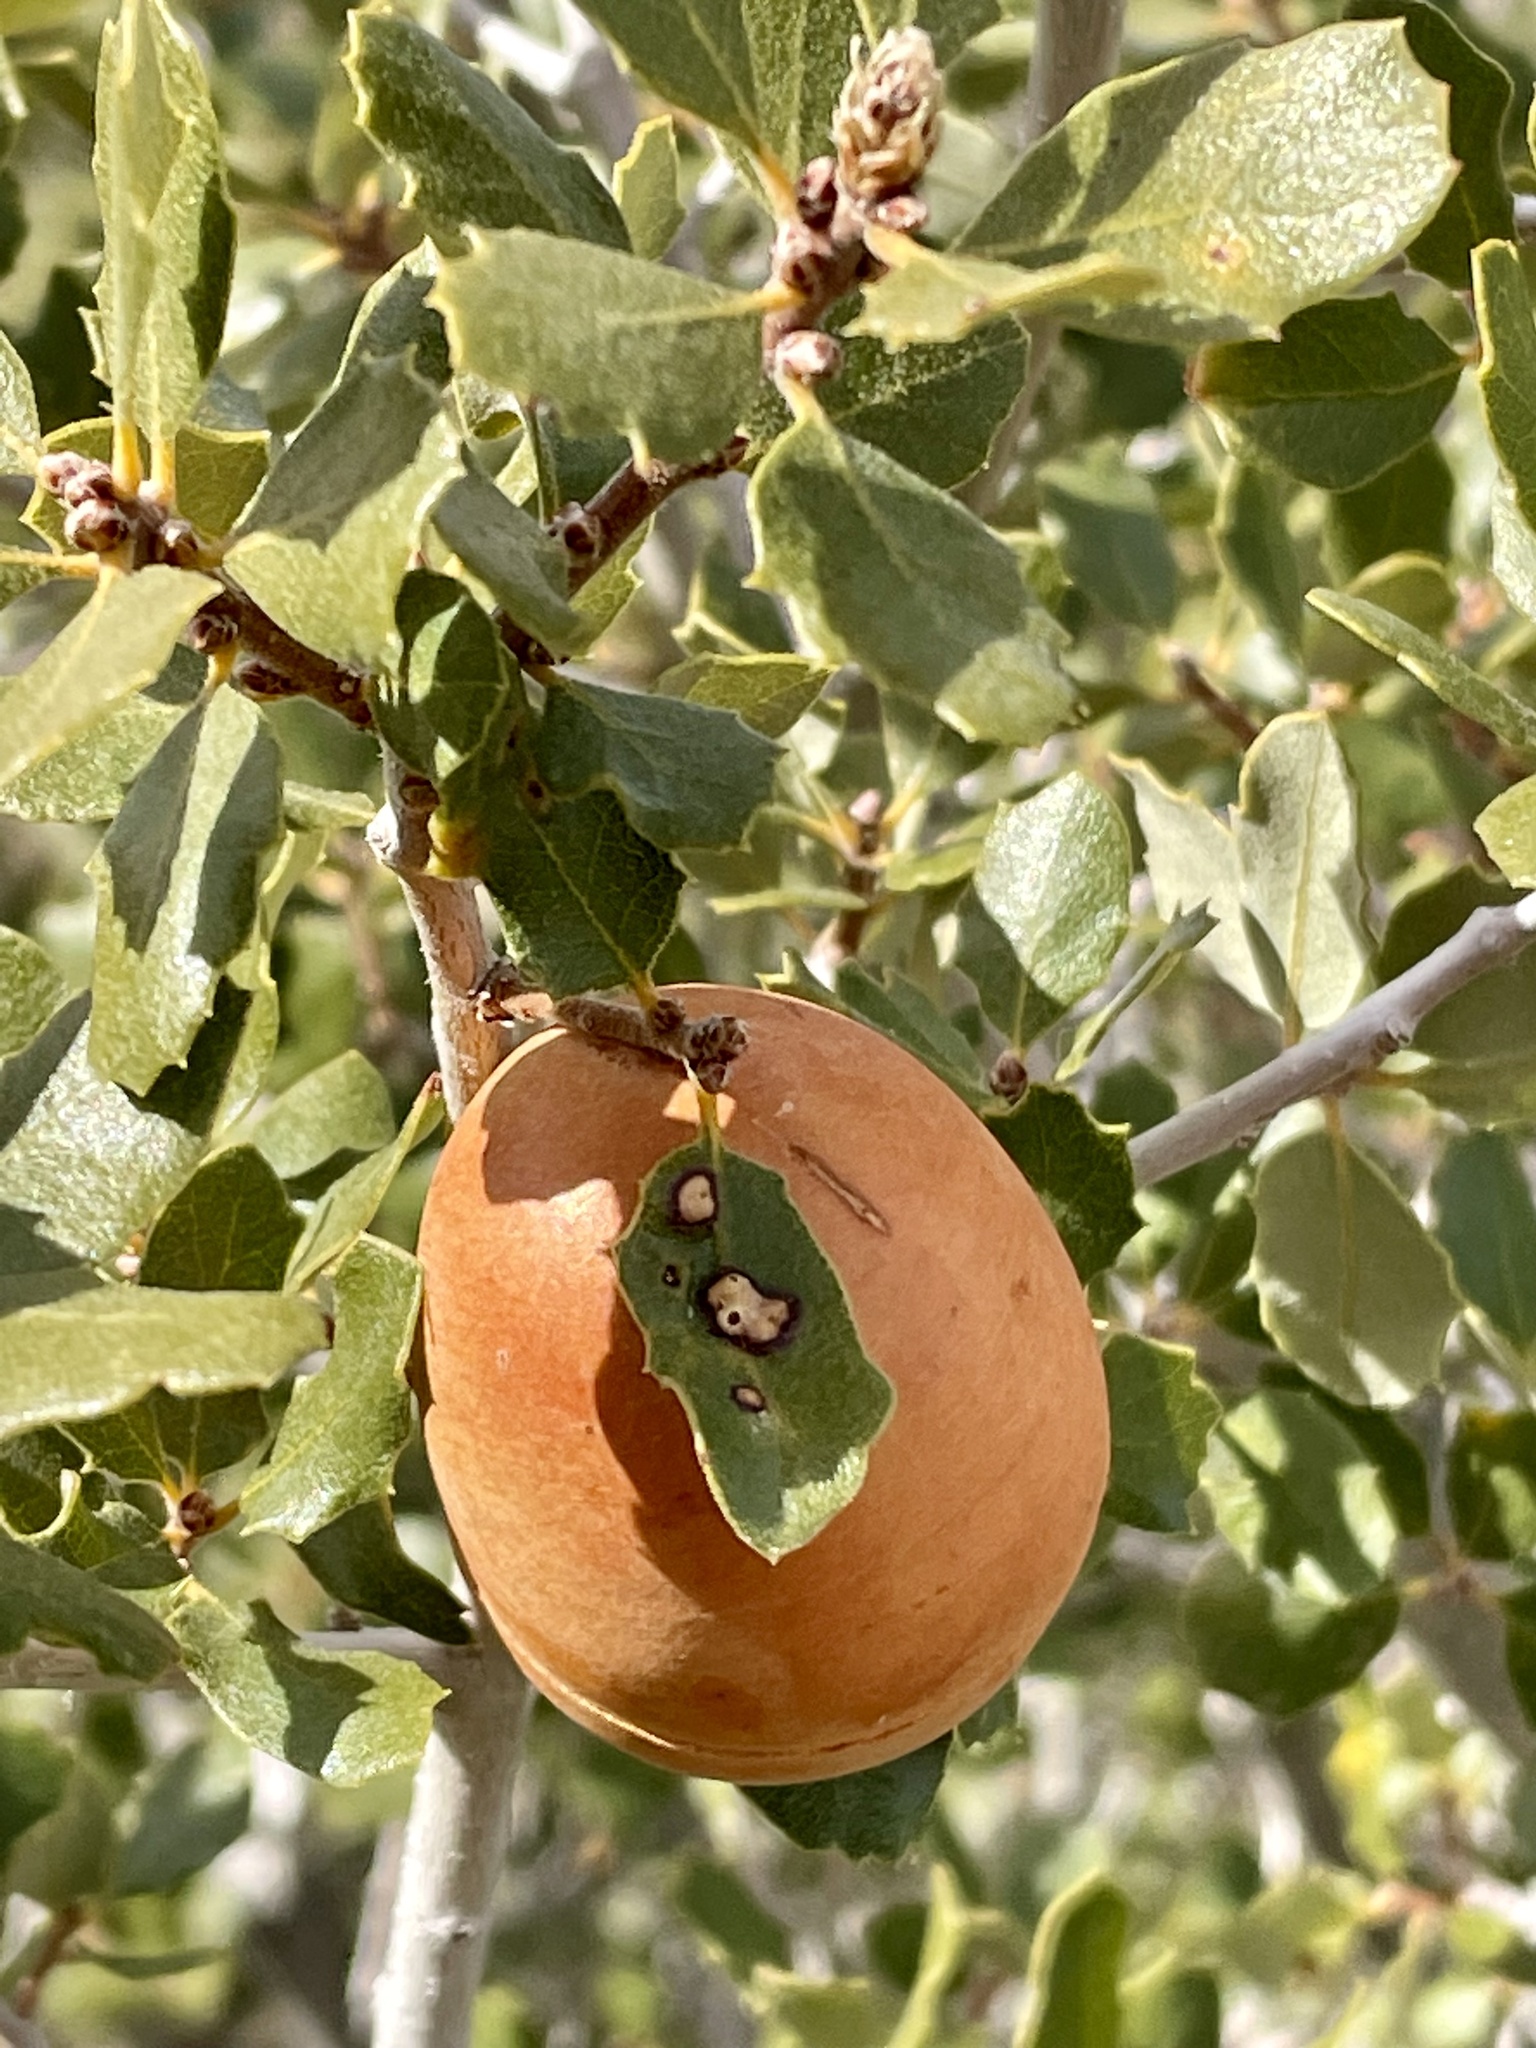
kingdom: Plantae
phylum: Tracheophyta
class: Magnoliopsida
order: Fagales
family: Fagaceae
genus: Quercus
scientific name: Quercus cornelius-mulleri
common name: Muller oak
